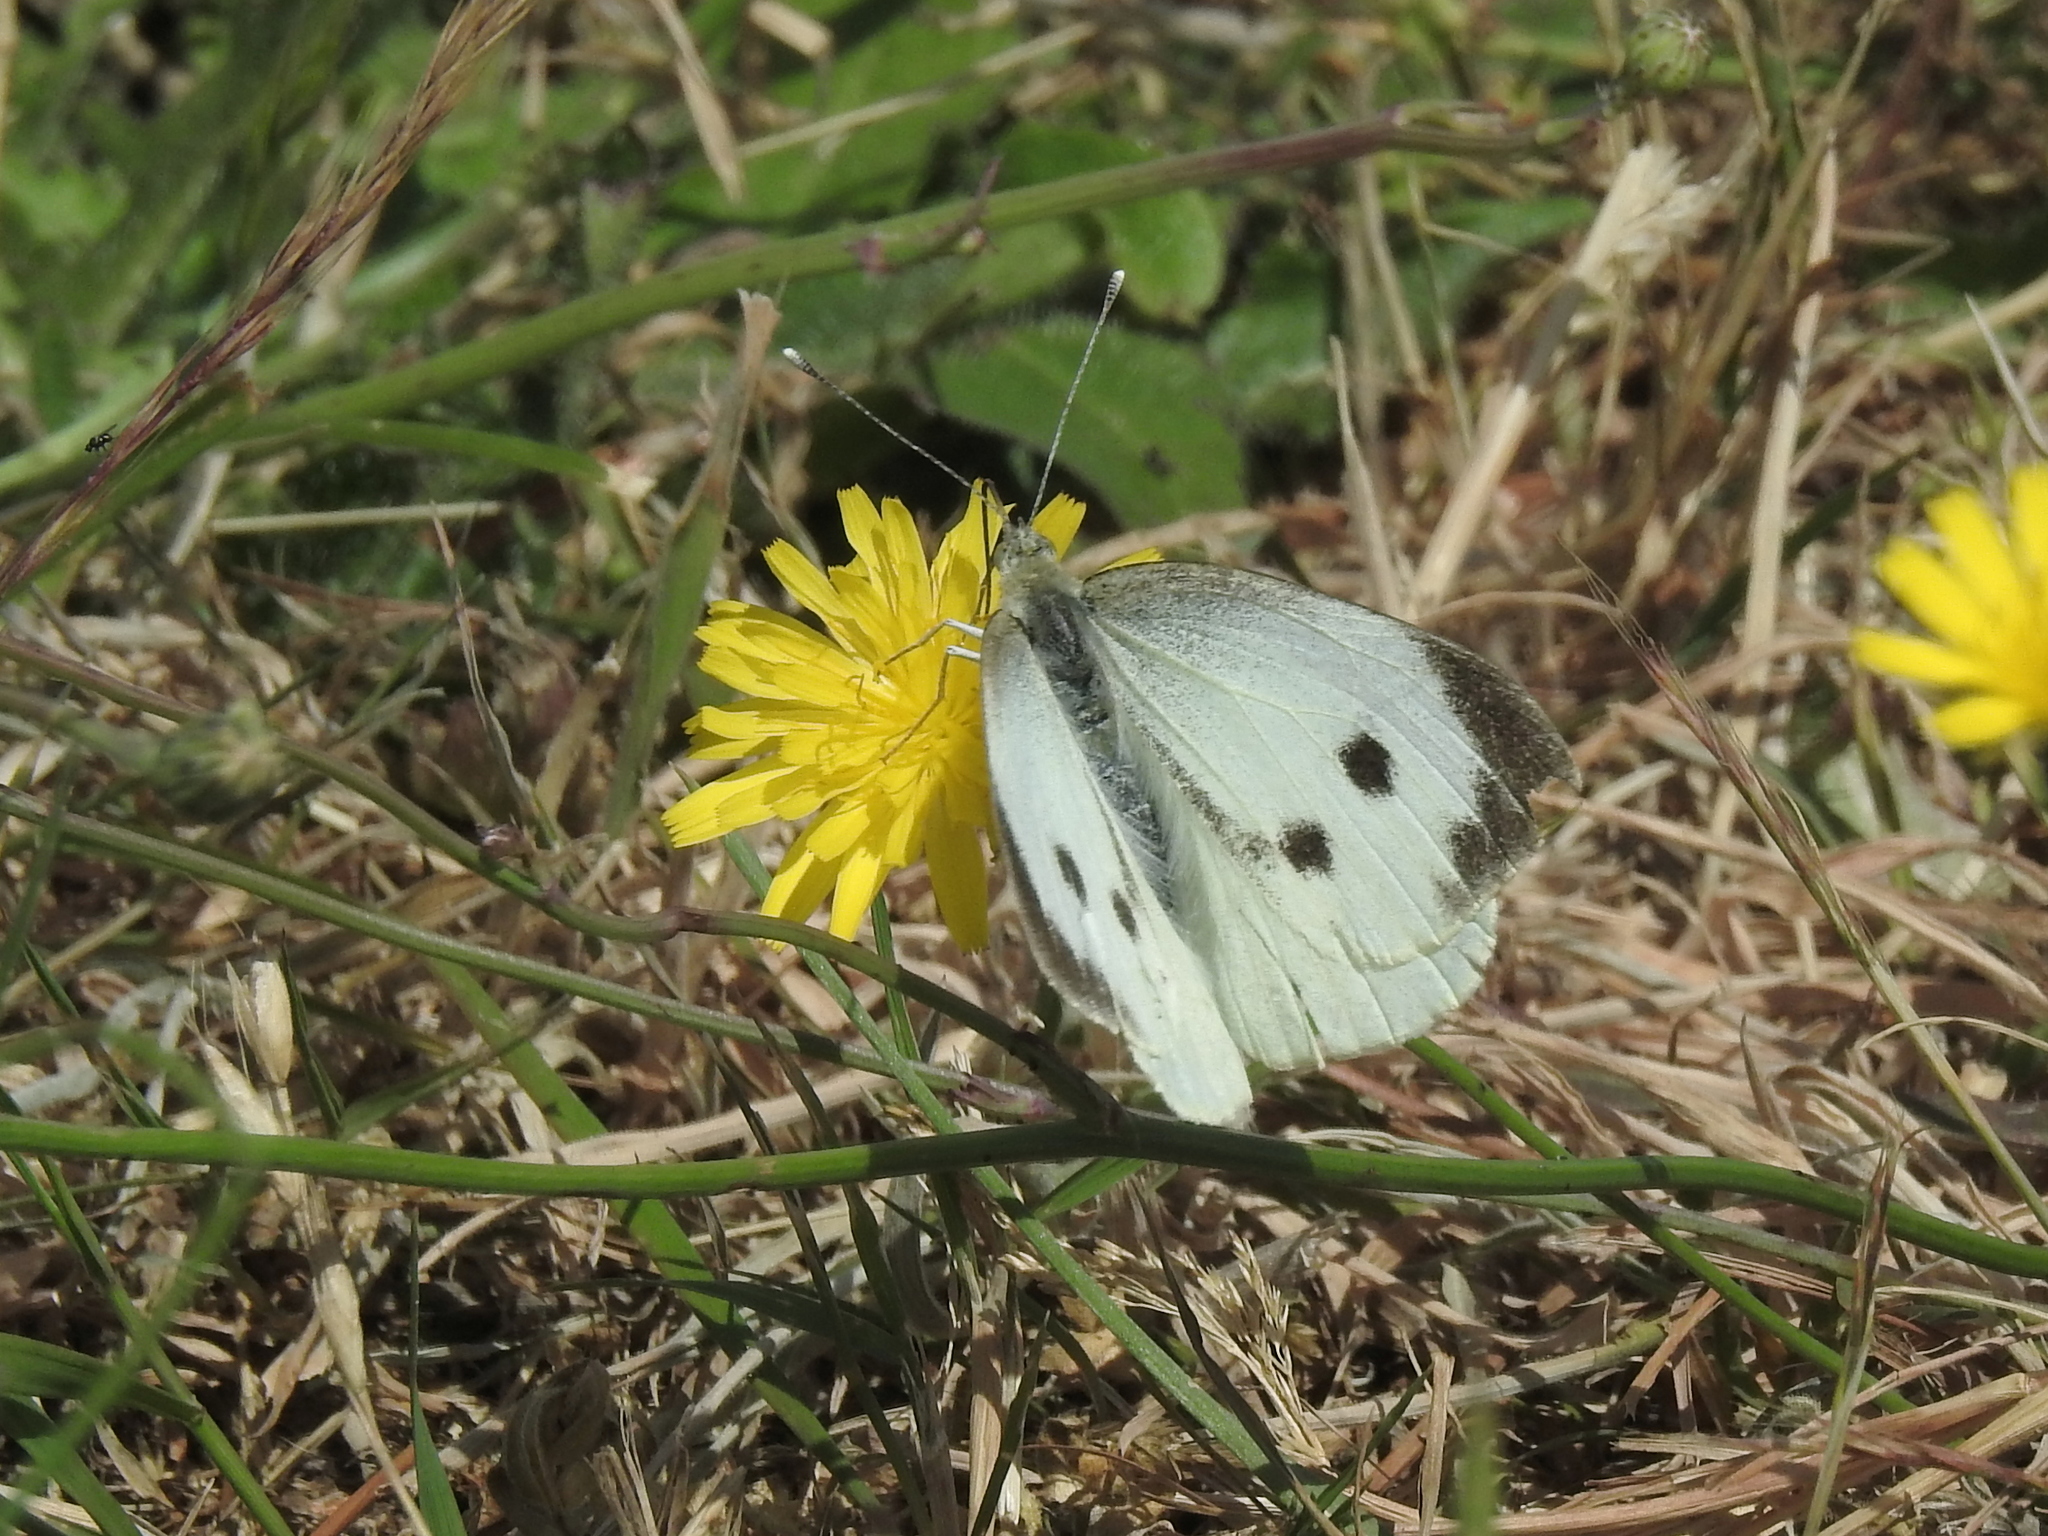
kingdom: Animalia
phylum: Arthropoda
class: Insecta
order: Lepidoptera
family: Pieridae
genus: Pieris
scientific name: Pieris brassicae
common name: Large white
